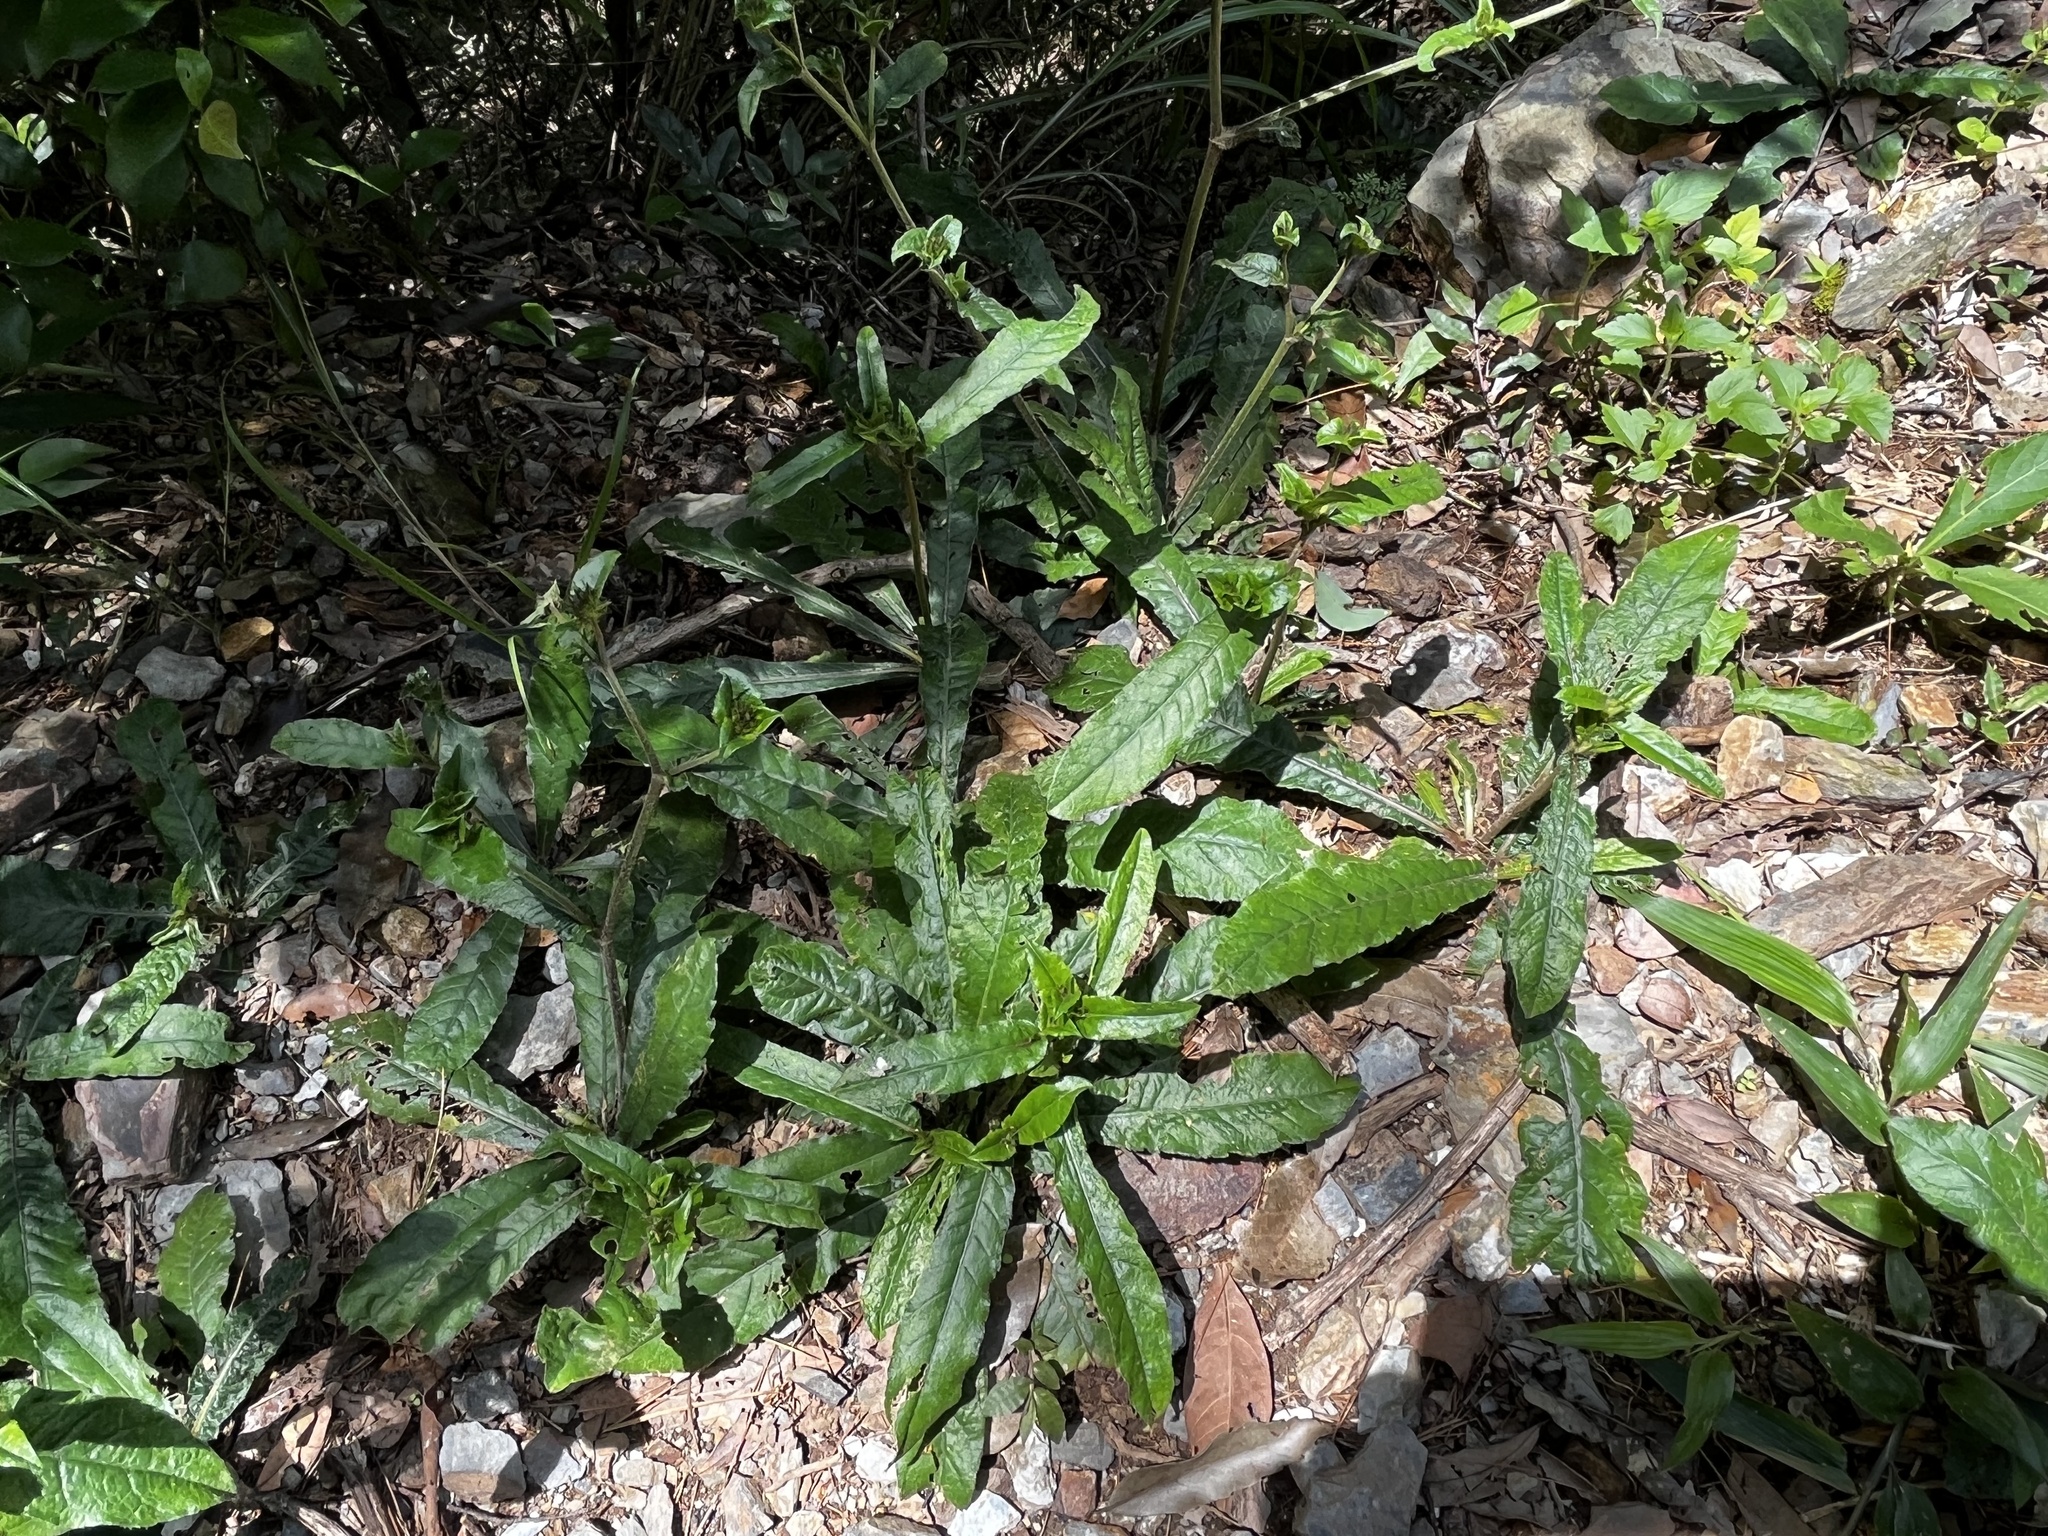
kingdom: Plantae
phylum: Tracheophyta
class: Magnoliopsida
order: Asterales
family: Asteraceae
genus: Elephantopus
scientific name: Elephantopus scaber
